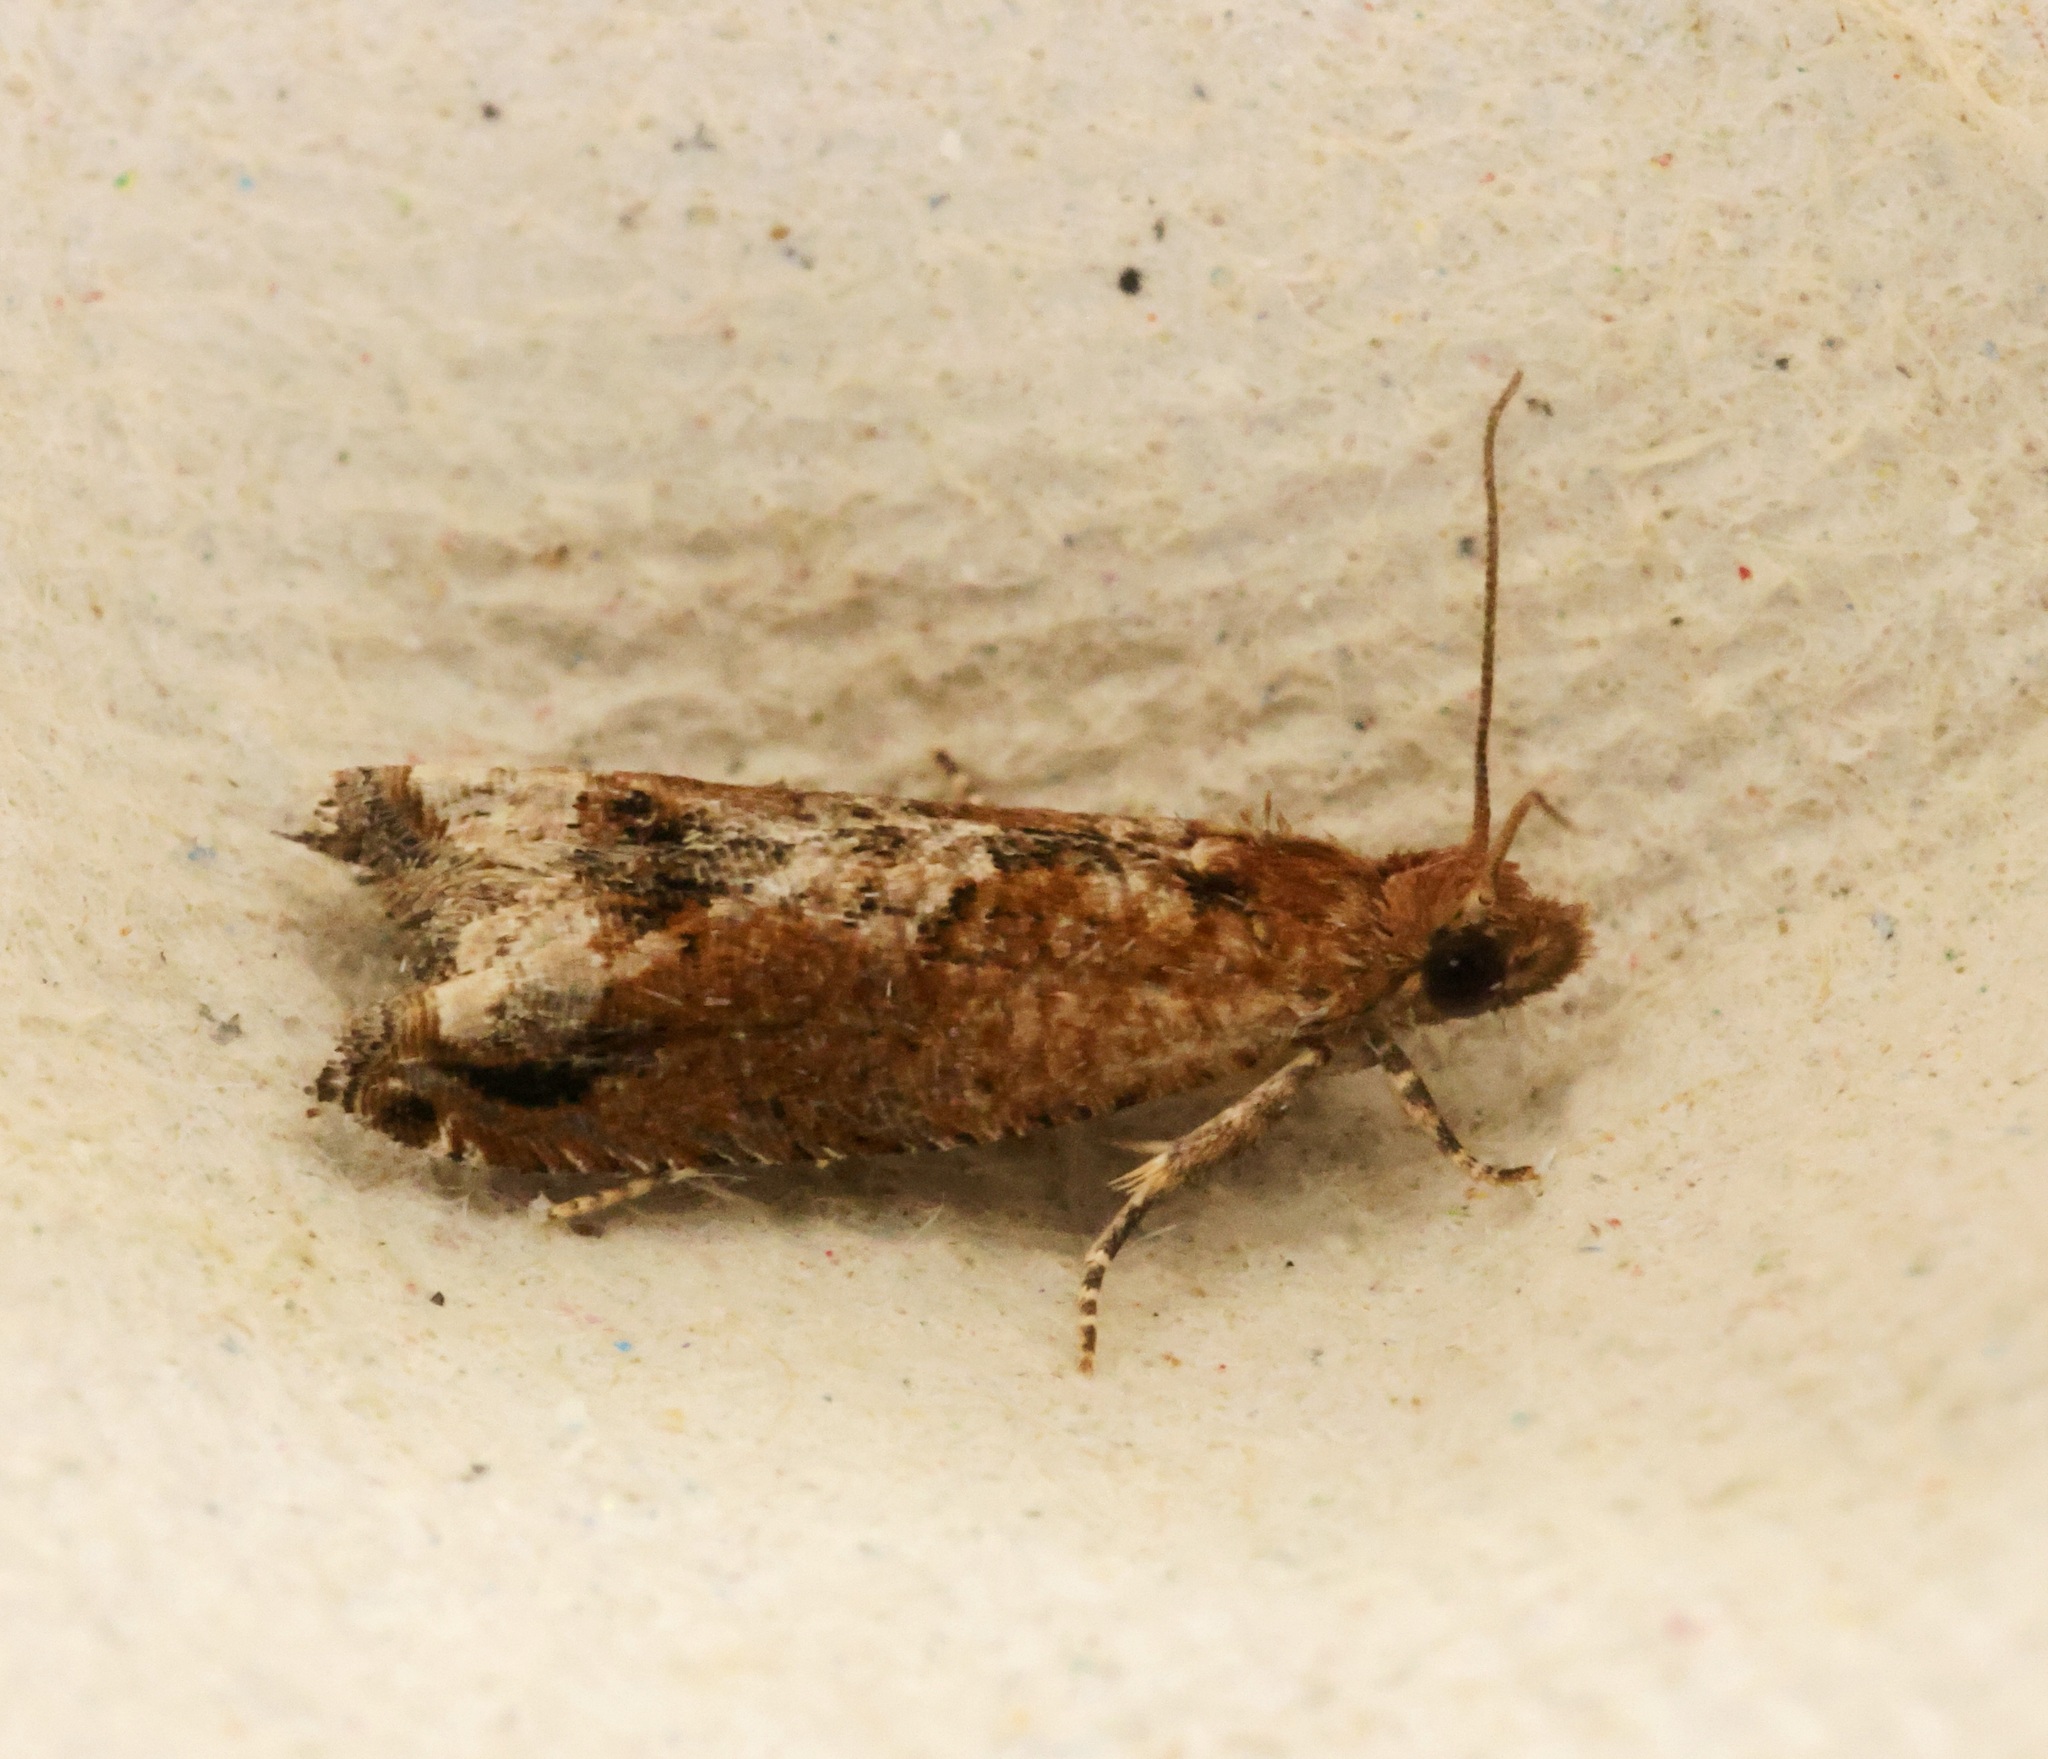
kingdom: Animalia
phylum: Arthropoda
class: Insecta
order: Lepidoptera
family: Tortricidae
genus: Crocidosema
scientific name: Crocidosema lantana
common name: Lantana flower-cluster moth
